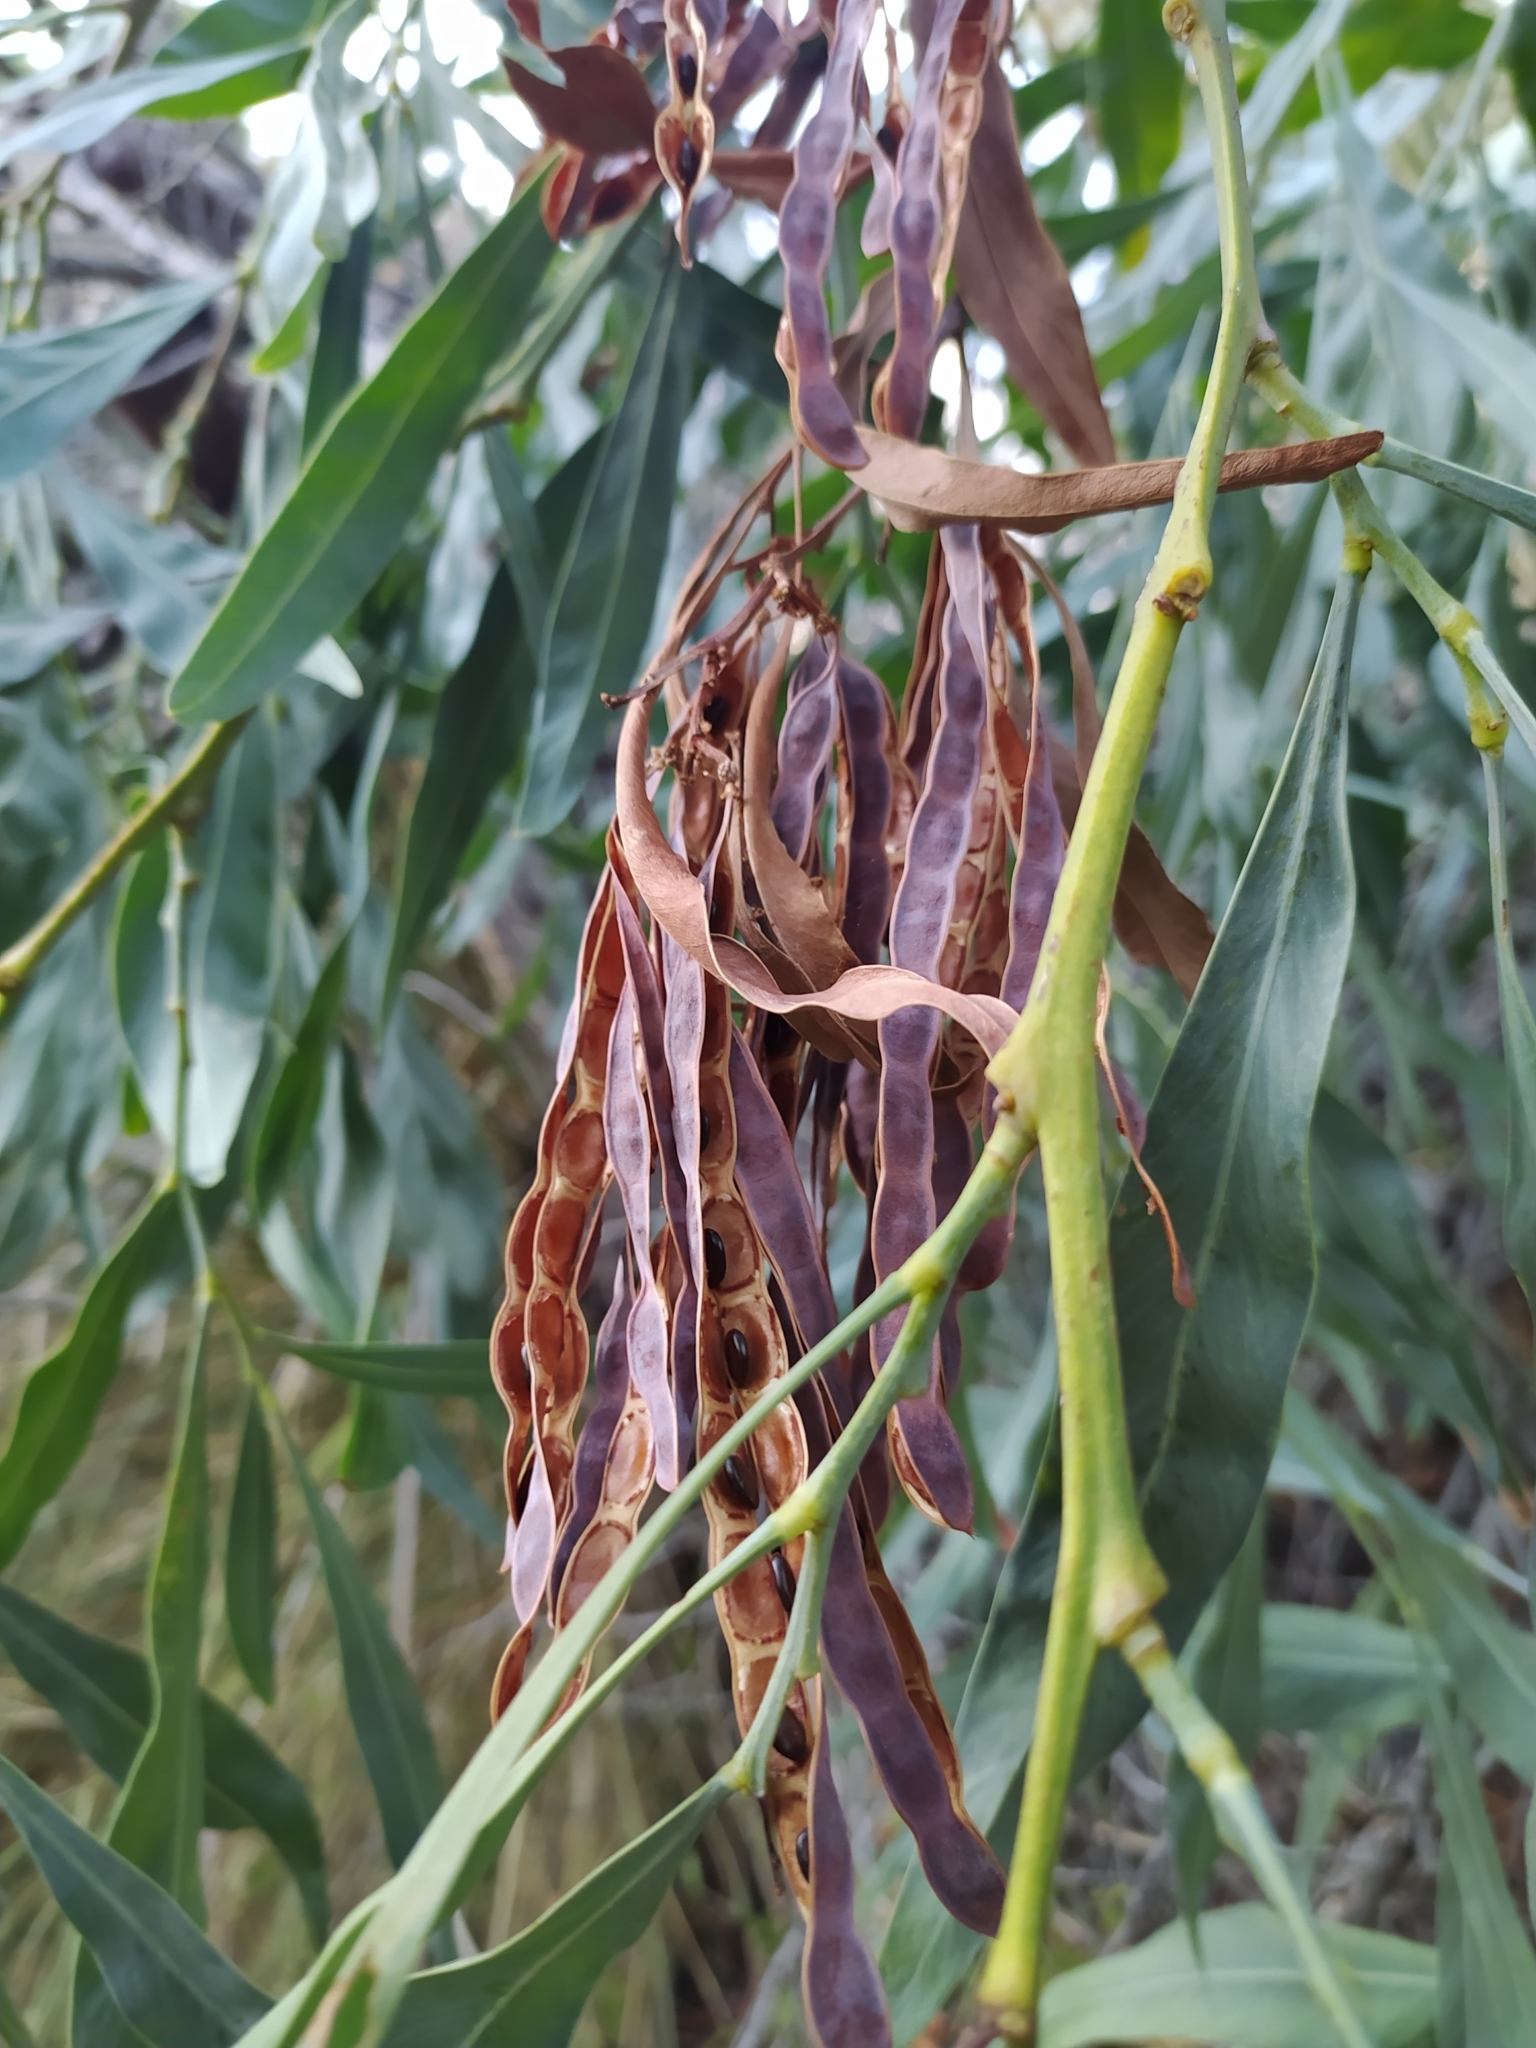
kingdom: Plantae
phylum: Tracheophyta
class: Magnoliopsida
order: Fabales
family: Fabaceae
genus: Acacia
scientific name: Acacia pycnantha
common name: Golden wattle
